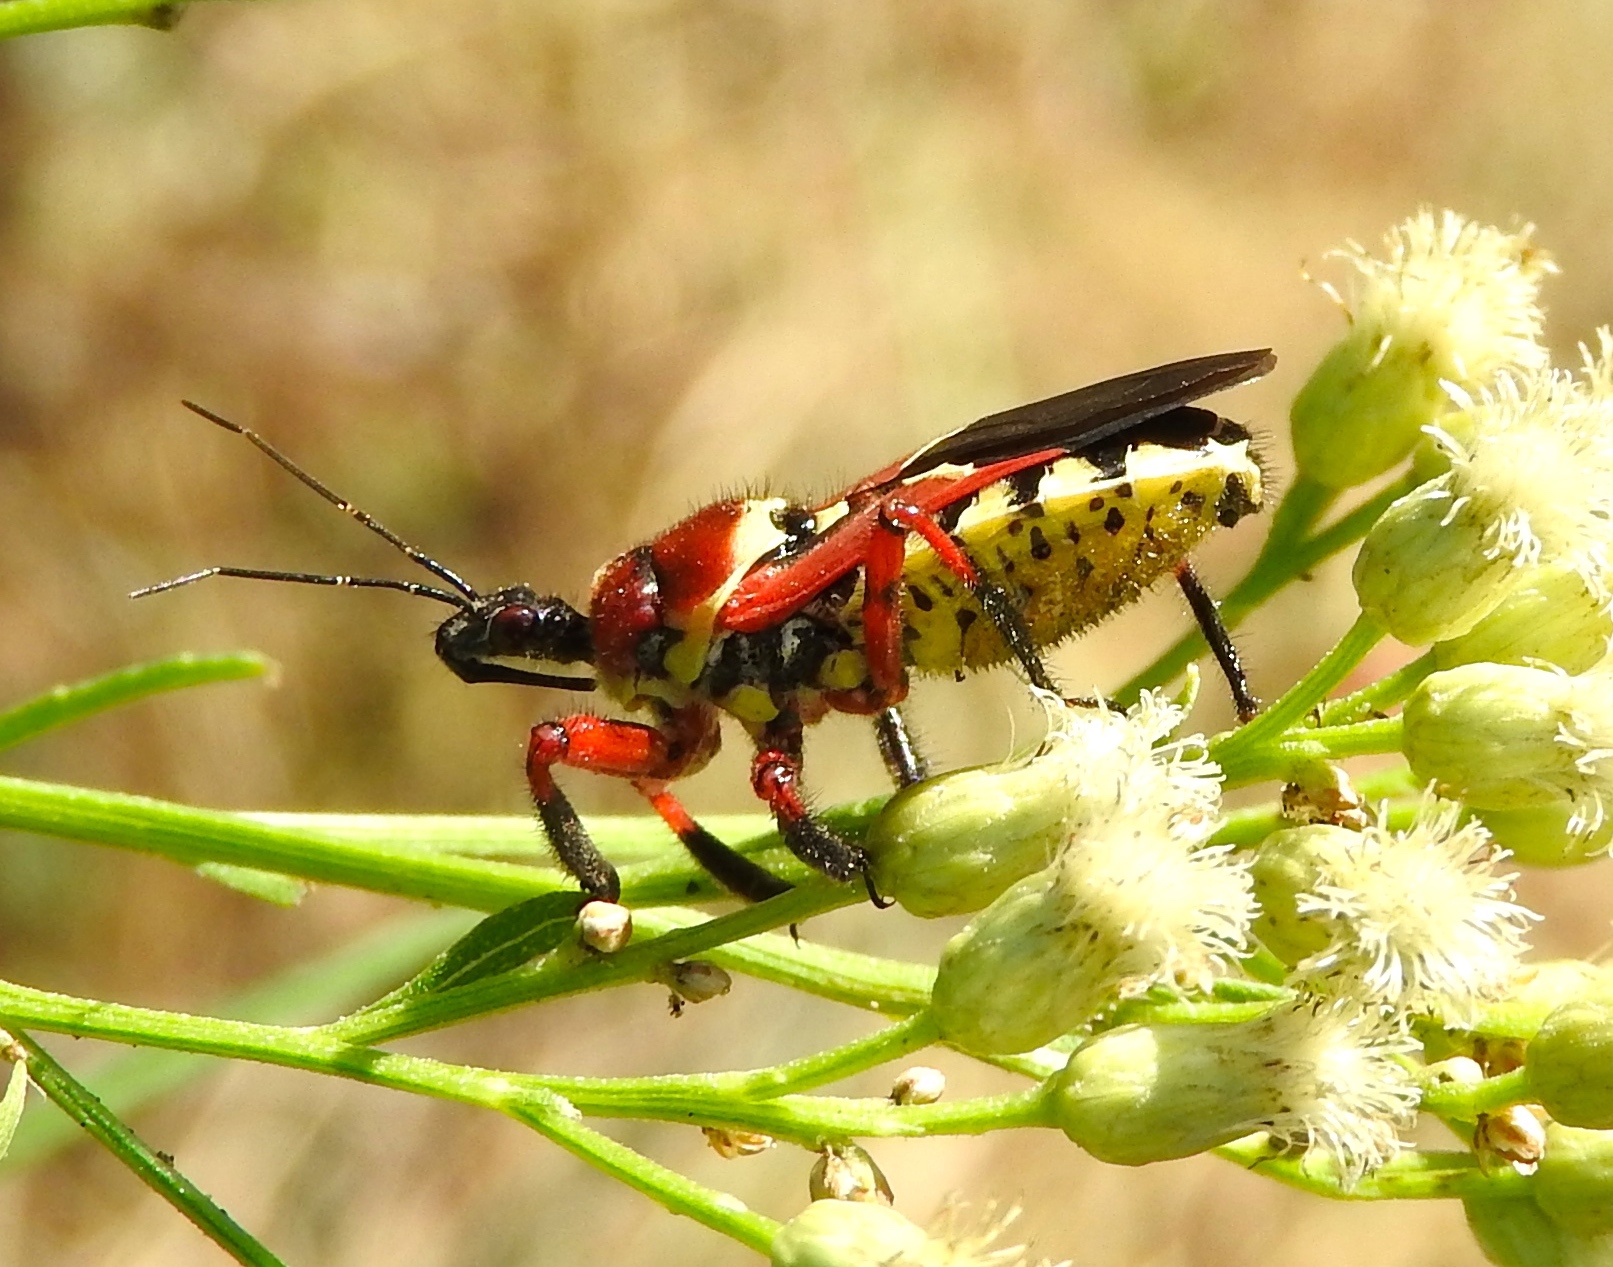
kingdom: Animalia
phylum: Arthropoda
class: Insecta
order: Hemiptera
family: Reduviidae
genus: Apiomerus
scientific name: Apiomerus flaviventris
